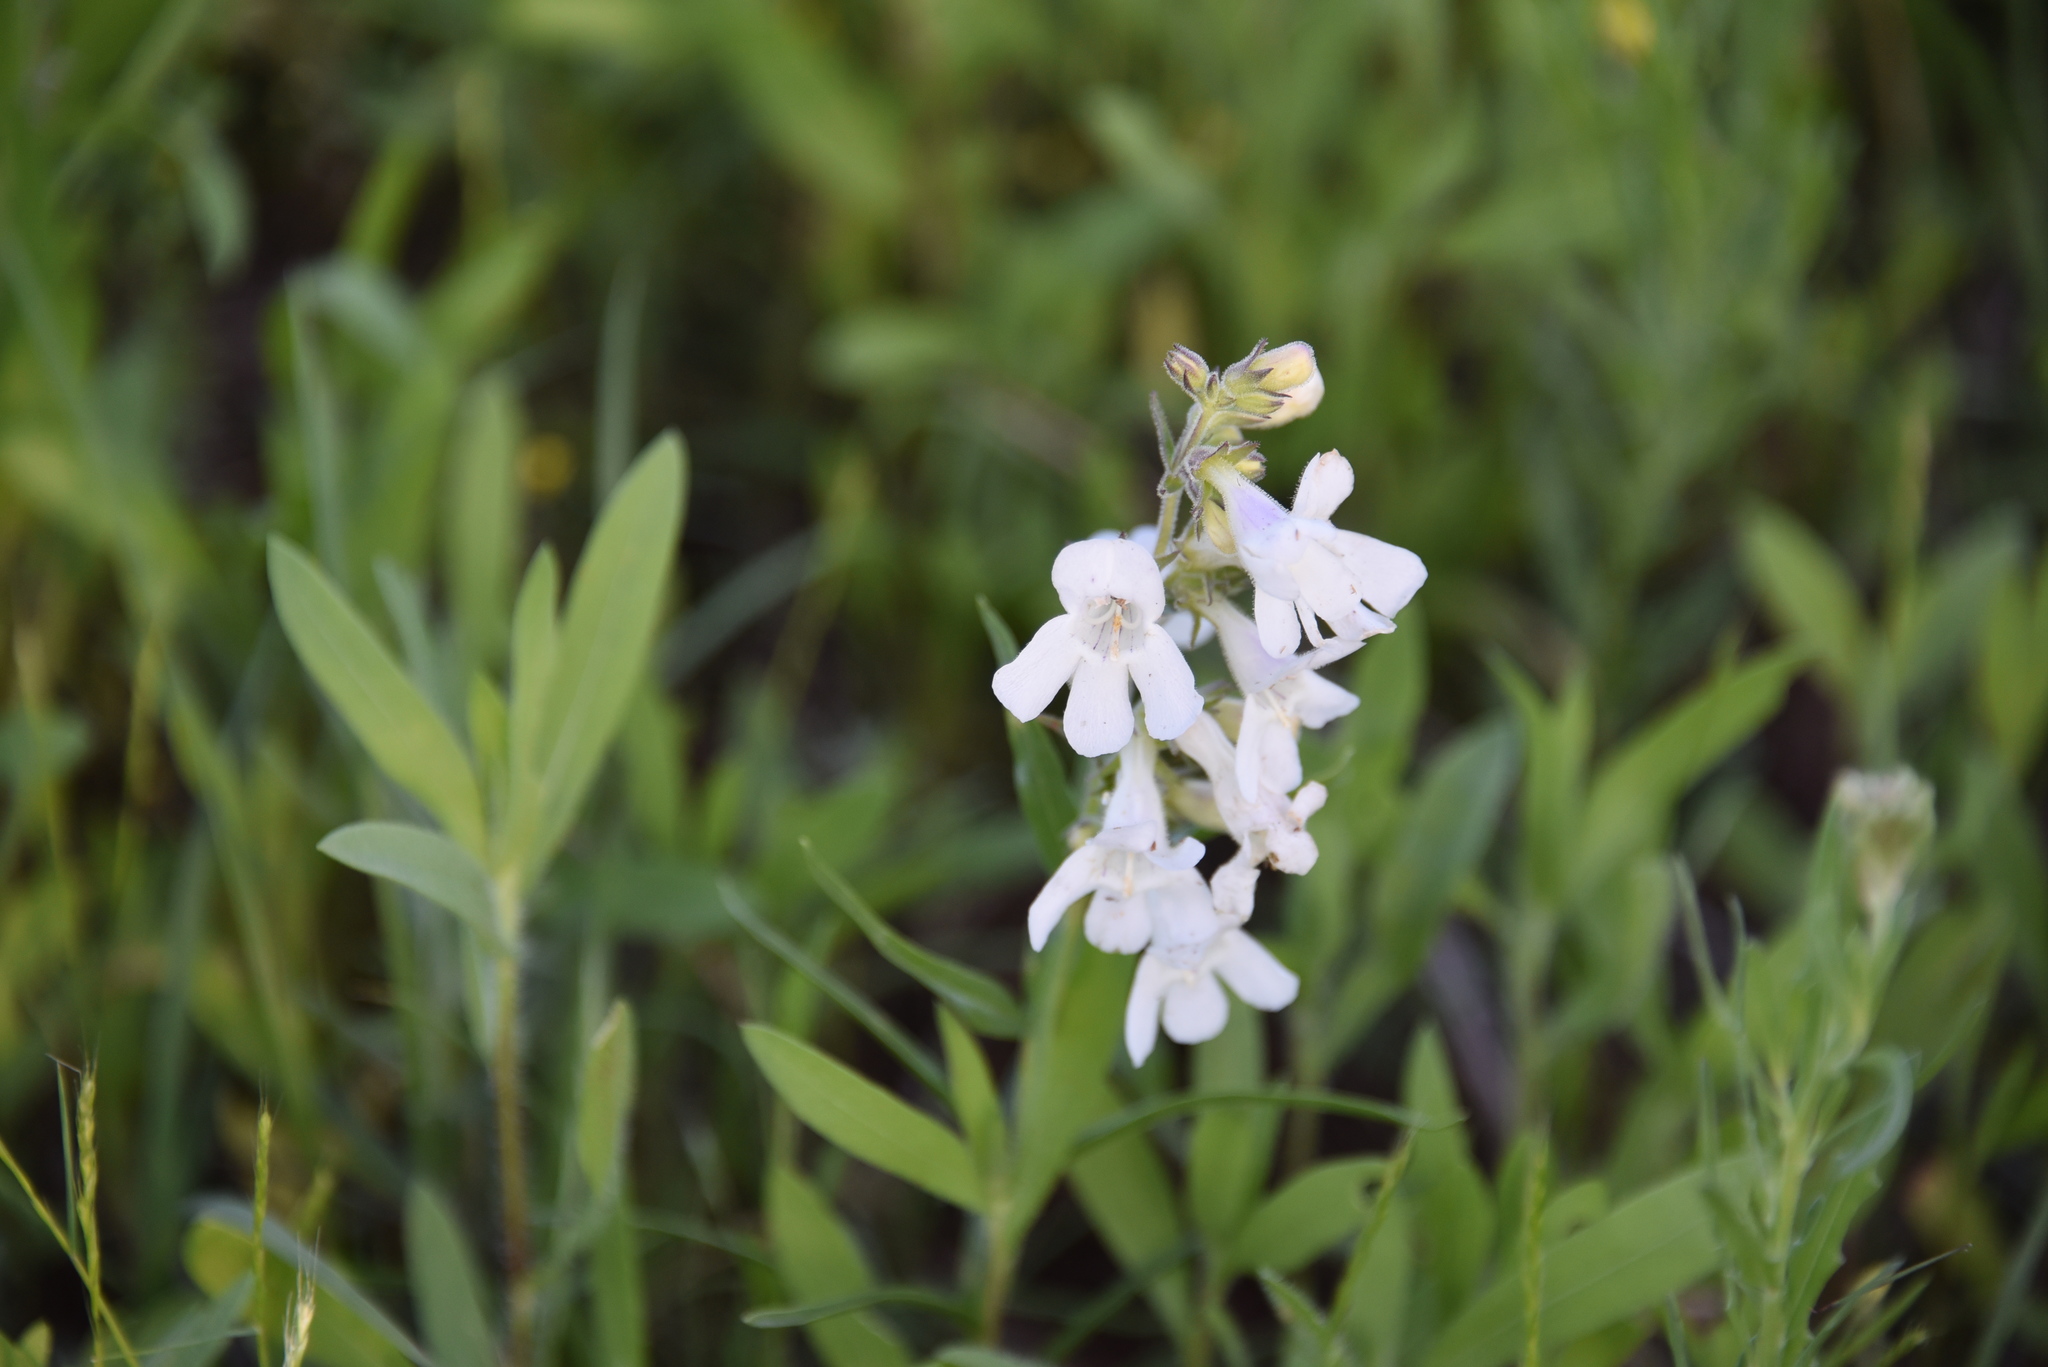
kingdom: Plantae
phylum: Tracheophyta
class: Magnoliopsida
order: Lamiales
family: Plantaginaceae
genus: Penstemon
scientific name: Penstemon guadalupensis
